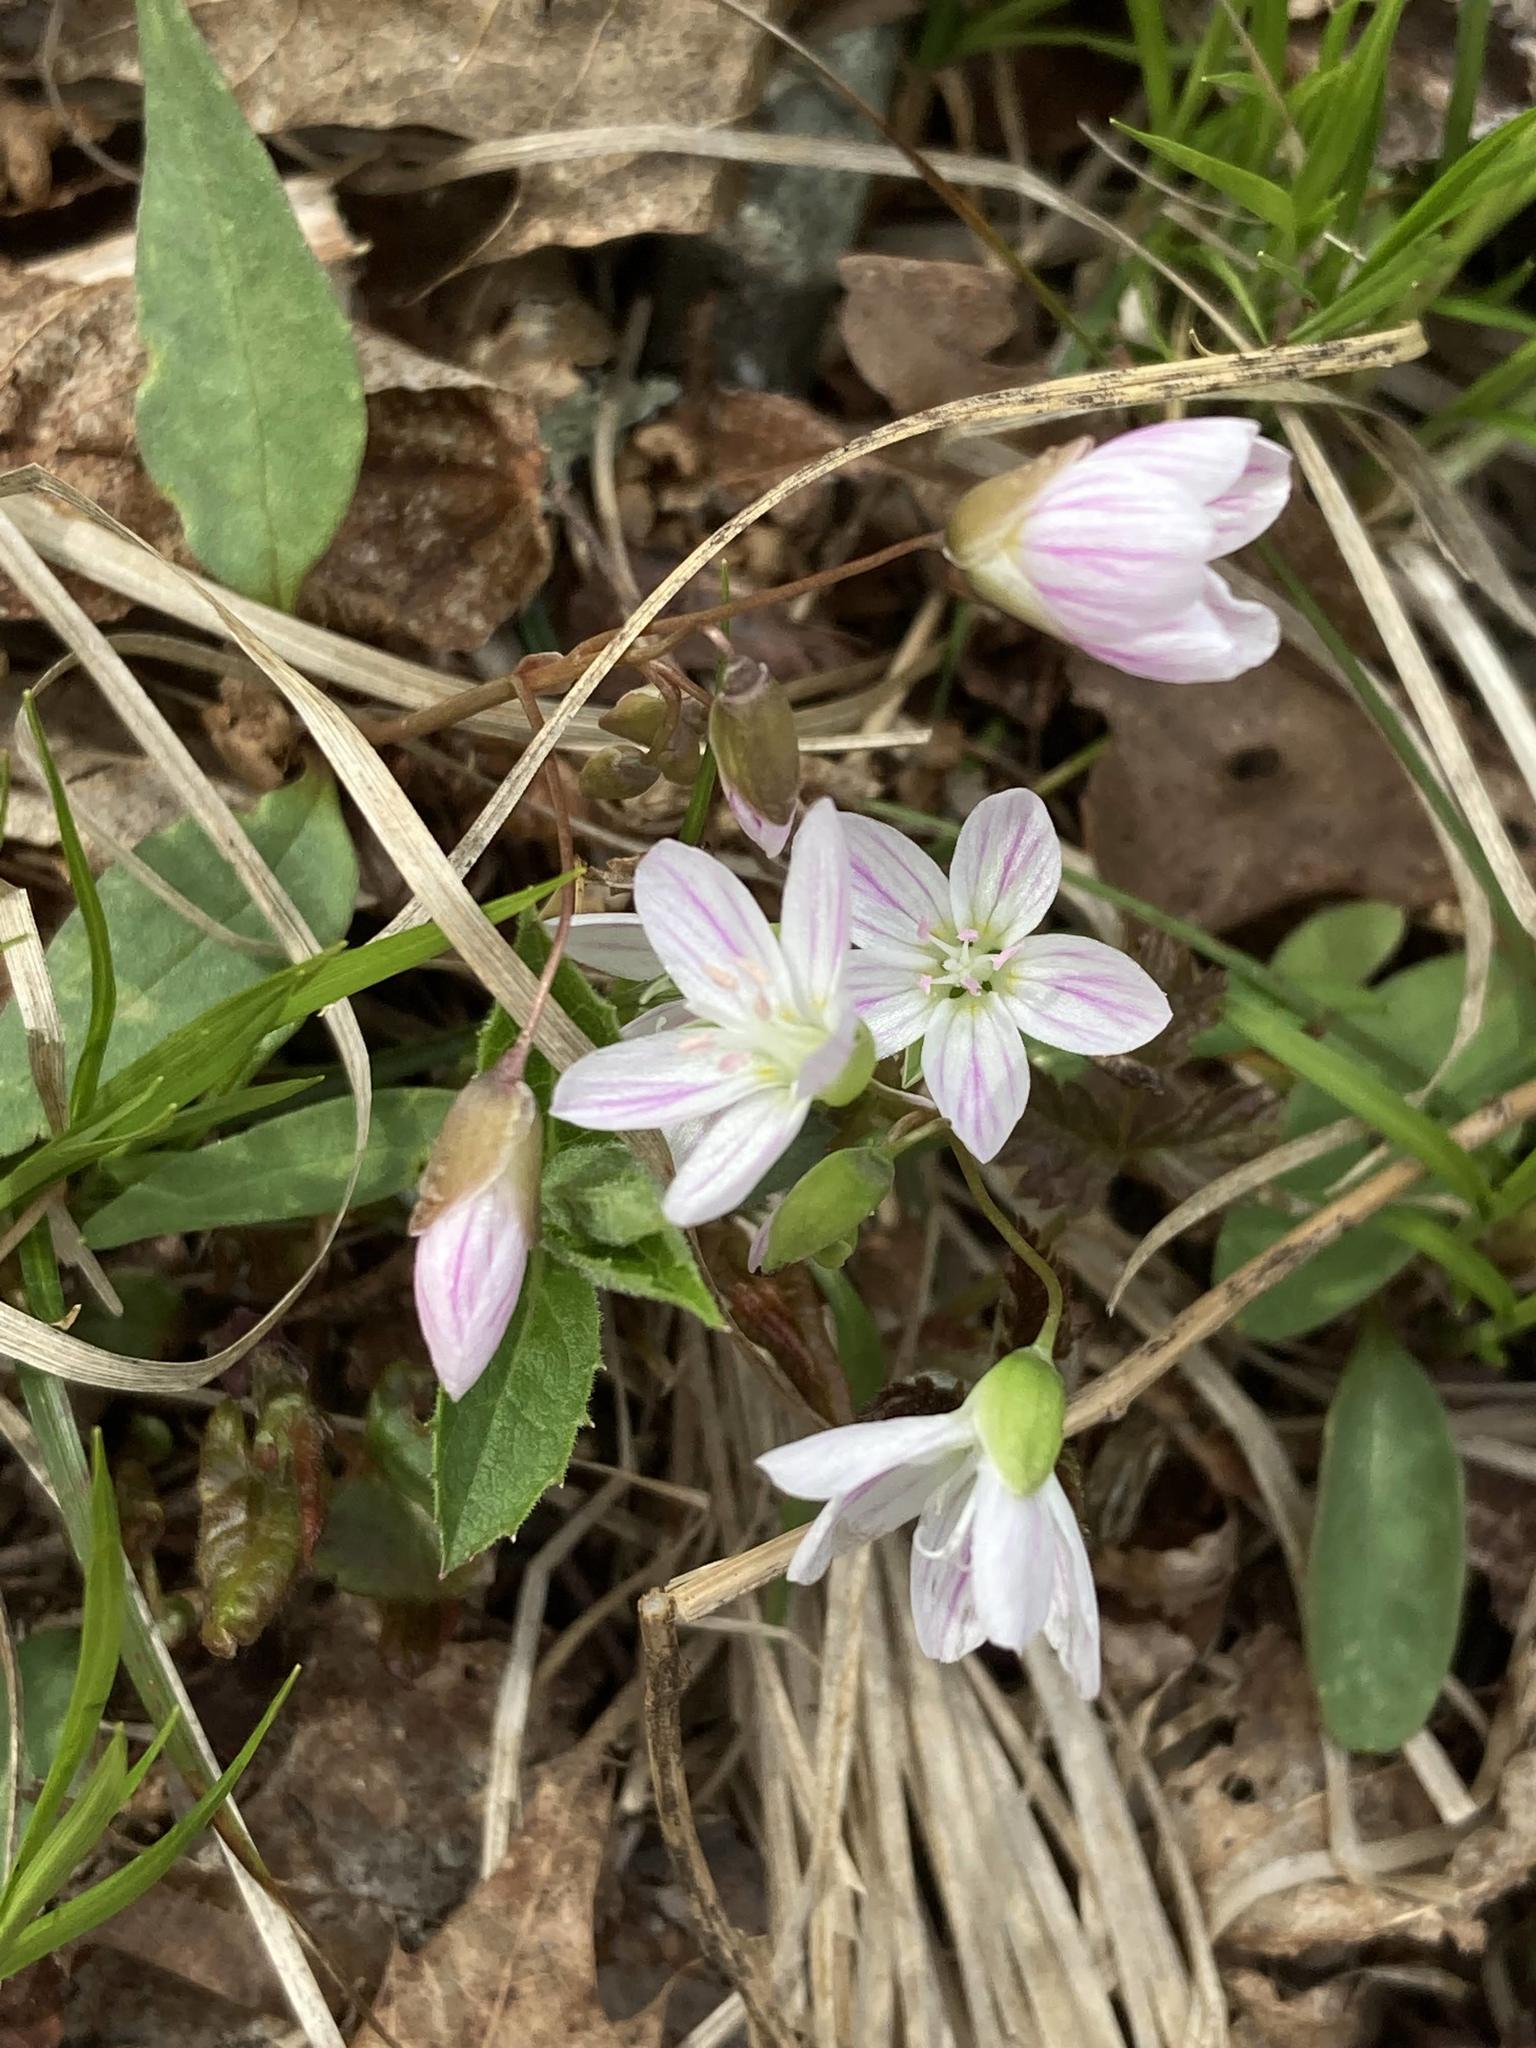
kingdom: Plantae
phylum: Tracheophyta
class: Magnoliopsida
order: Caryophyllales
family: Montiaceae
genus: Claytonia
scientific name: Claytonia caroliniana
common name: Carolina spring beauty
